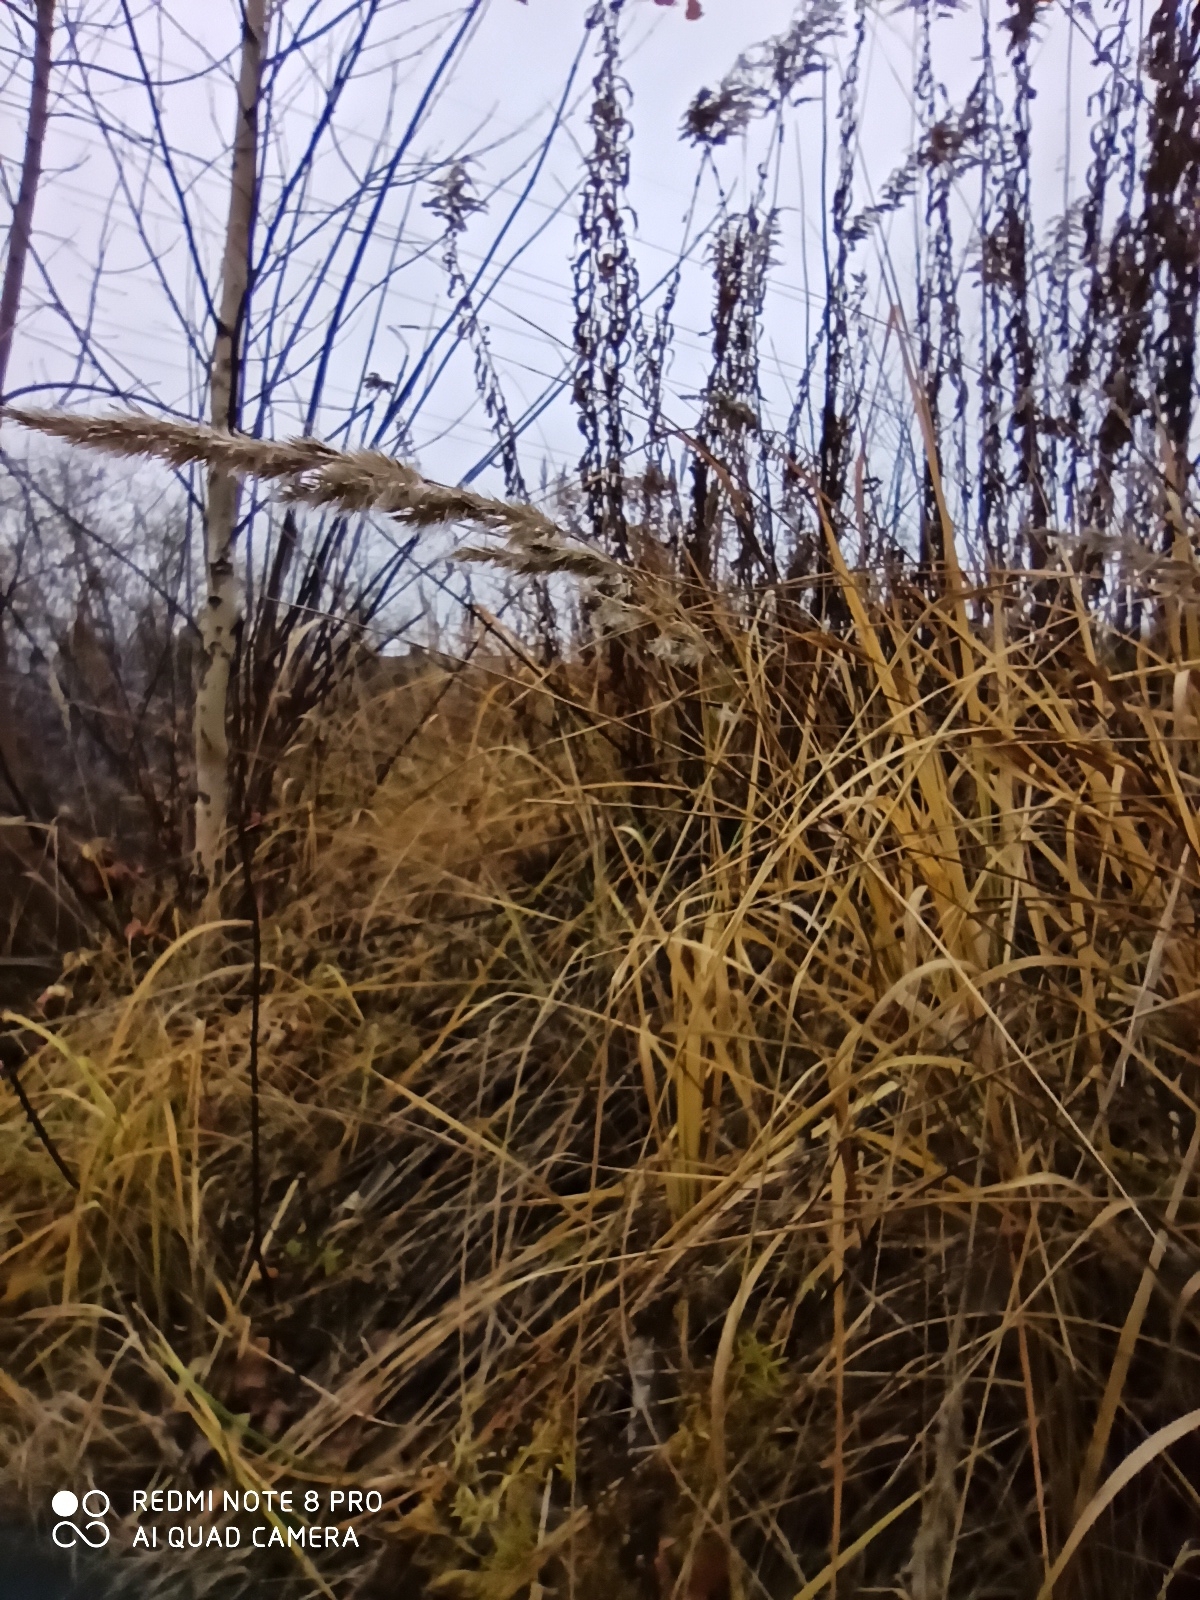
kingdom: Plantae
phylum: Tracheophyta
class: Liliopsida
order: Poales
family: Poaceae
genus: Calamagrostis
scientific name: Calamagrostis epigejos
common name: Wood small-reed
